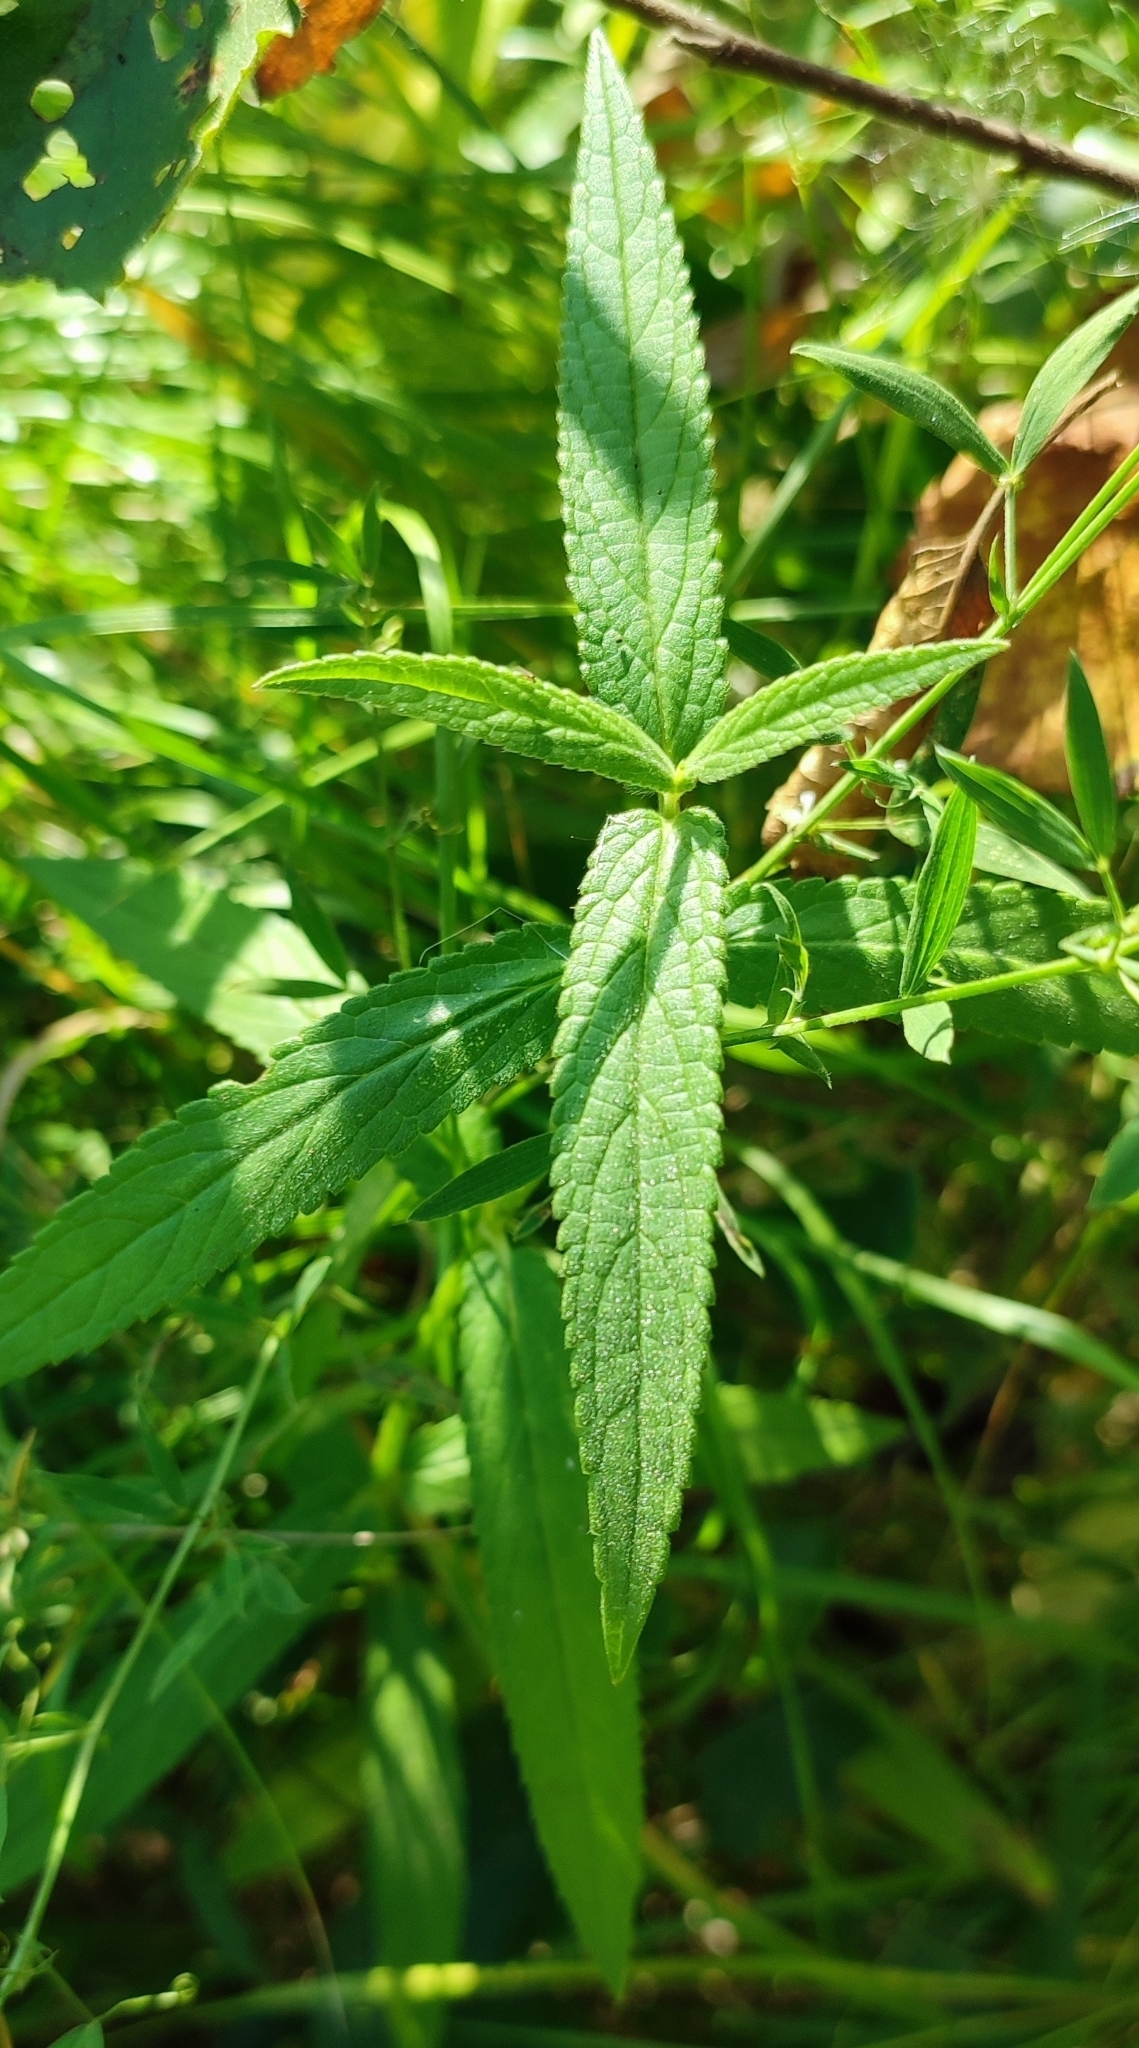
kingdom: Plantae
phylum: Tracheophyta
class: Magnoliopsida
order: Lamiales
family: Lamiaceae
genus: Stachys
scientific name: Stachys palustris
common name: Marsh woundwort
